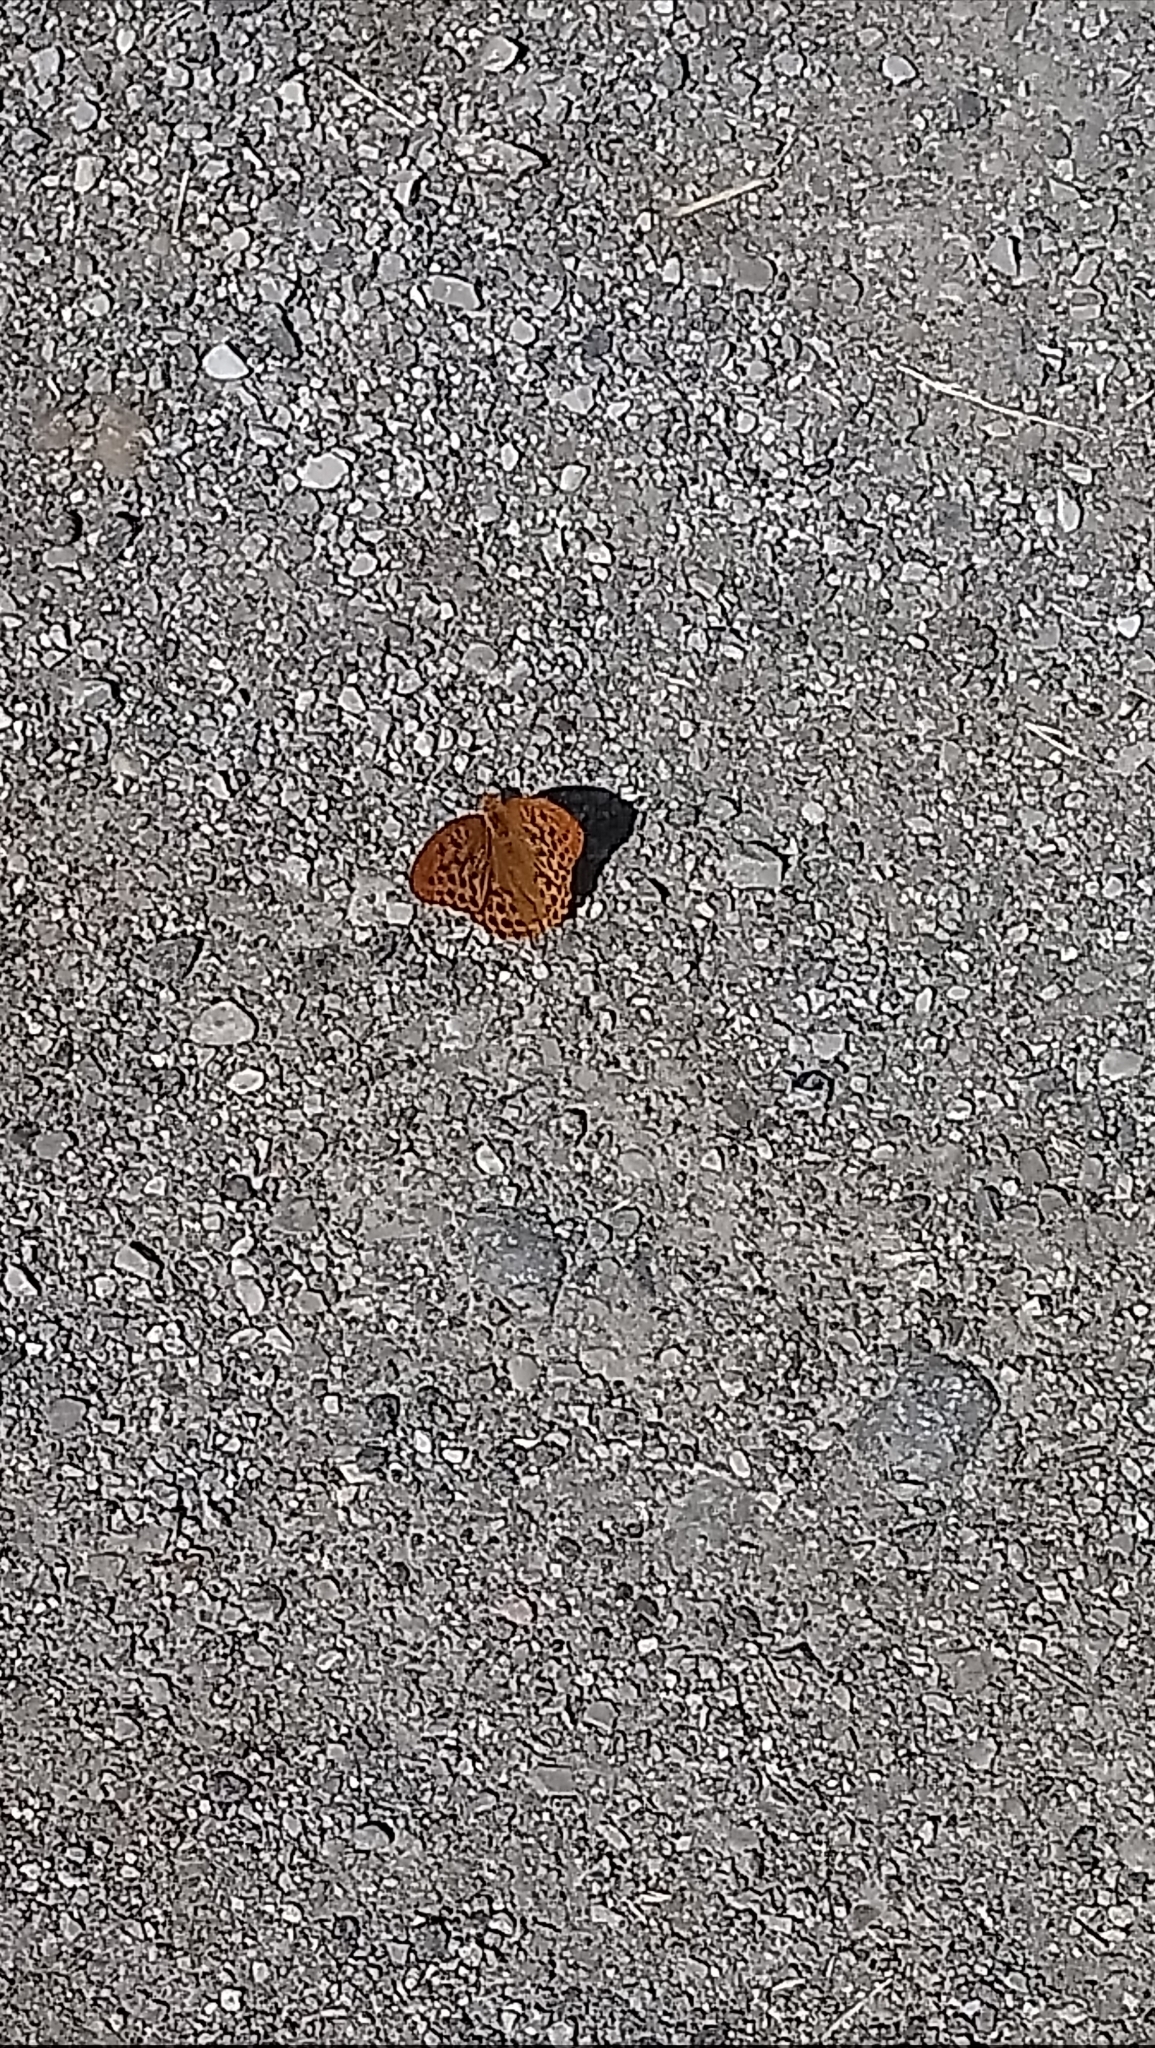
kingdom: Animalia
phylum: Arthropoda
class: Insecta
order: Lepidoptera
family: Nymphalidae
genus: Argynnis
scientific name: Argynnis paphia
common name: Silver-washed fritillary
